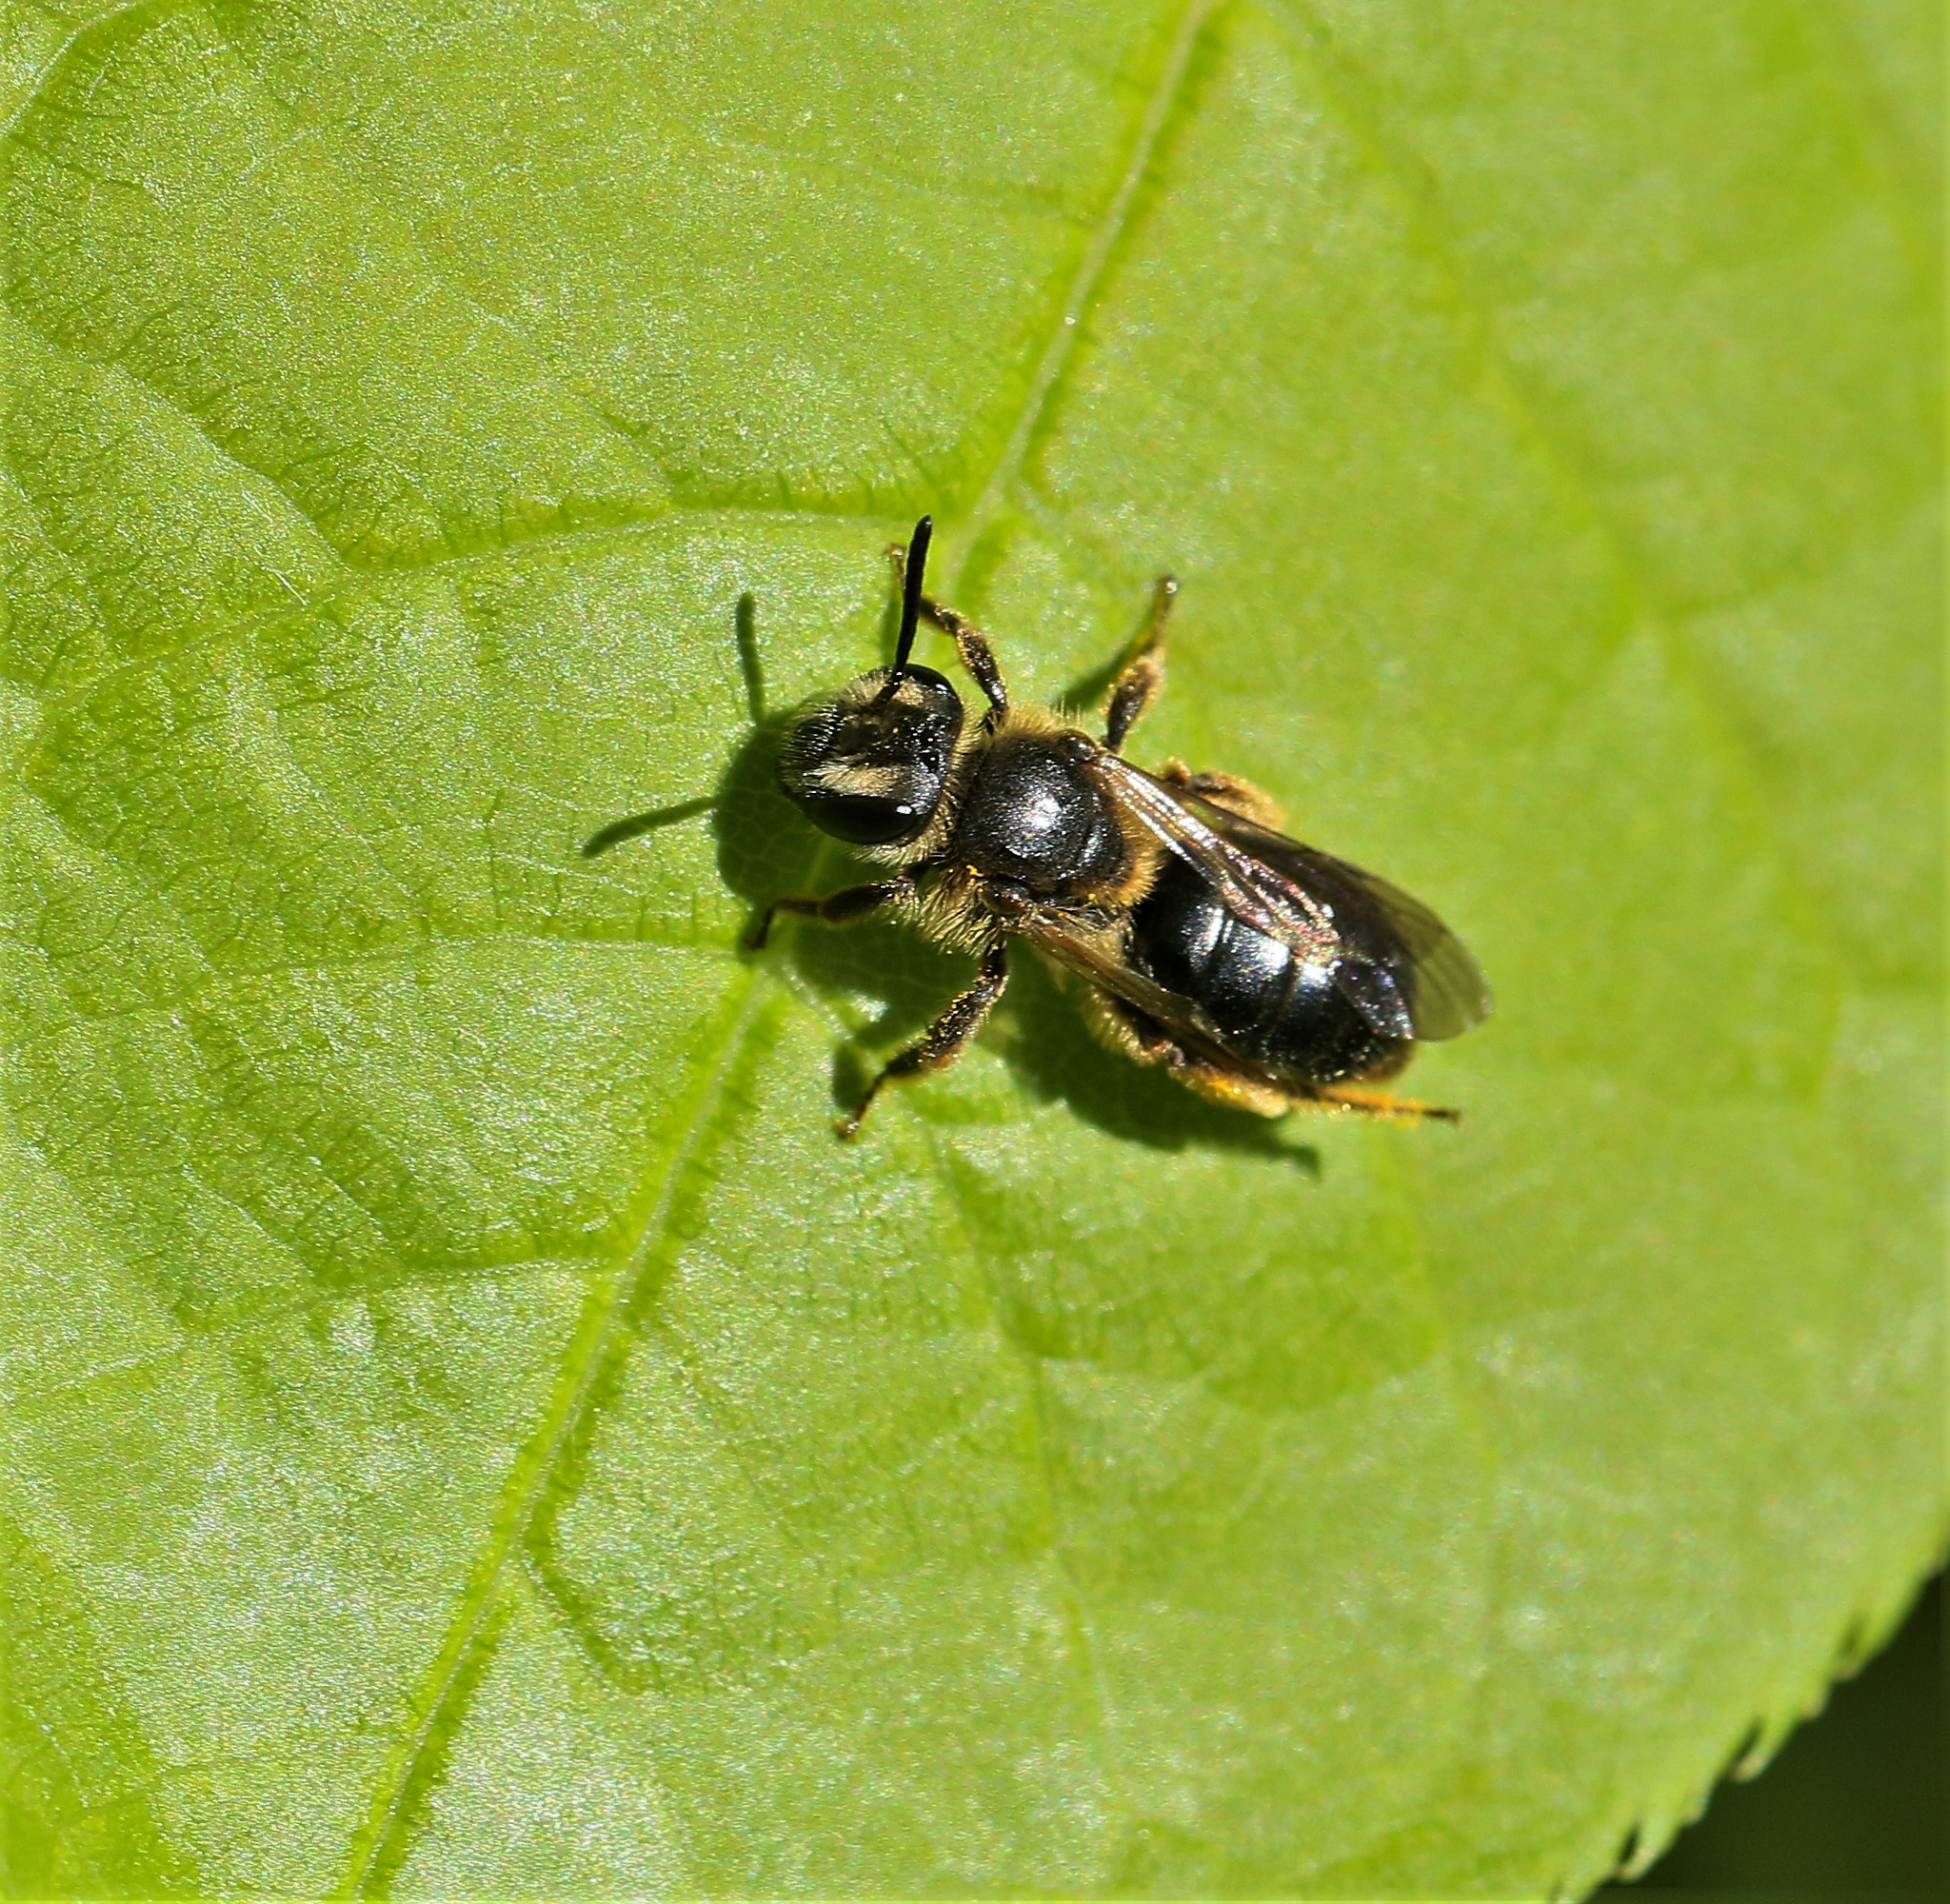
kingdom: Animalia
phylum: Arthropoda
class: Insecta
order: Hymenoptera
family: Andrenidae
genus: Andrena
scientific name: Andrena
